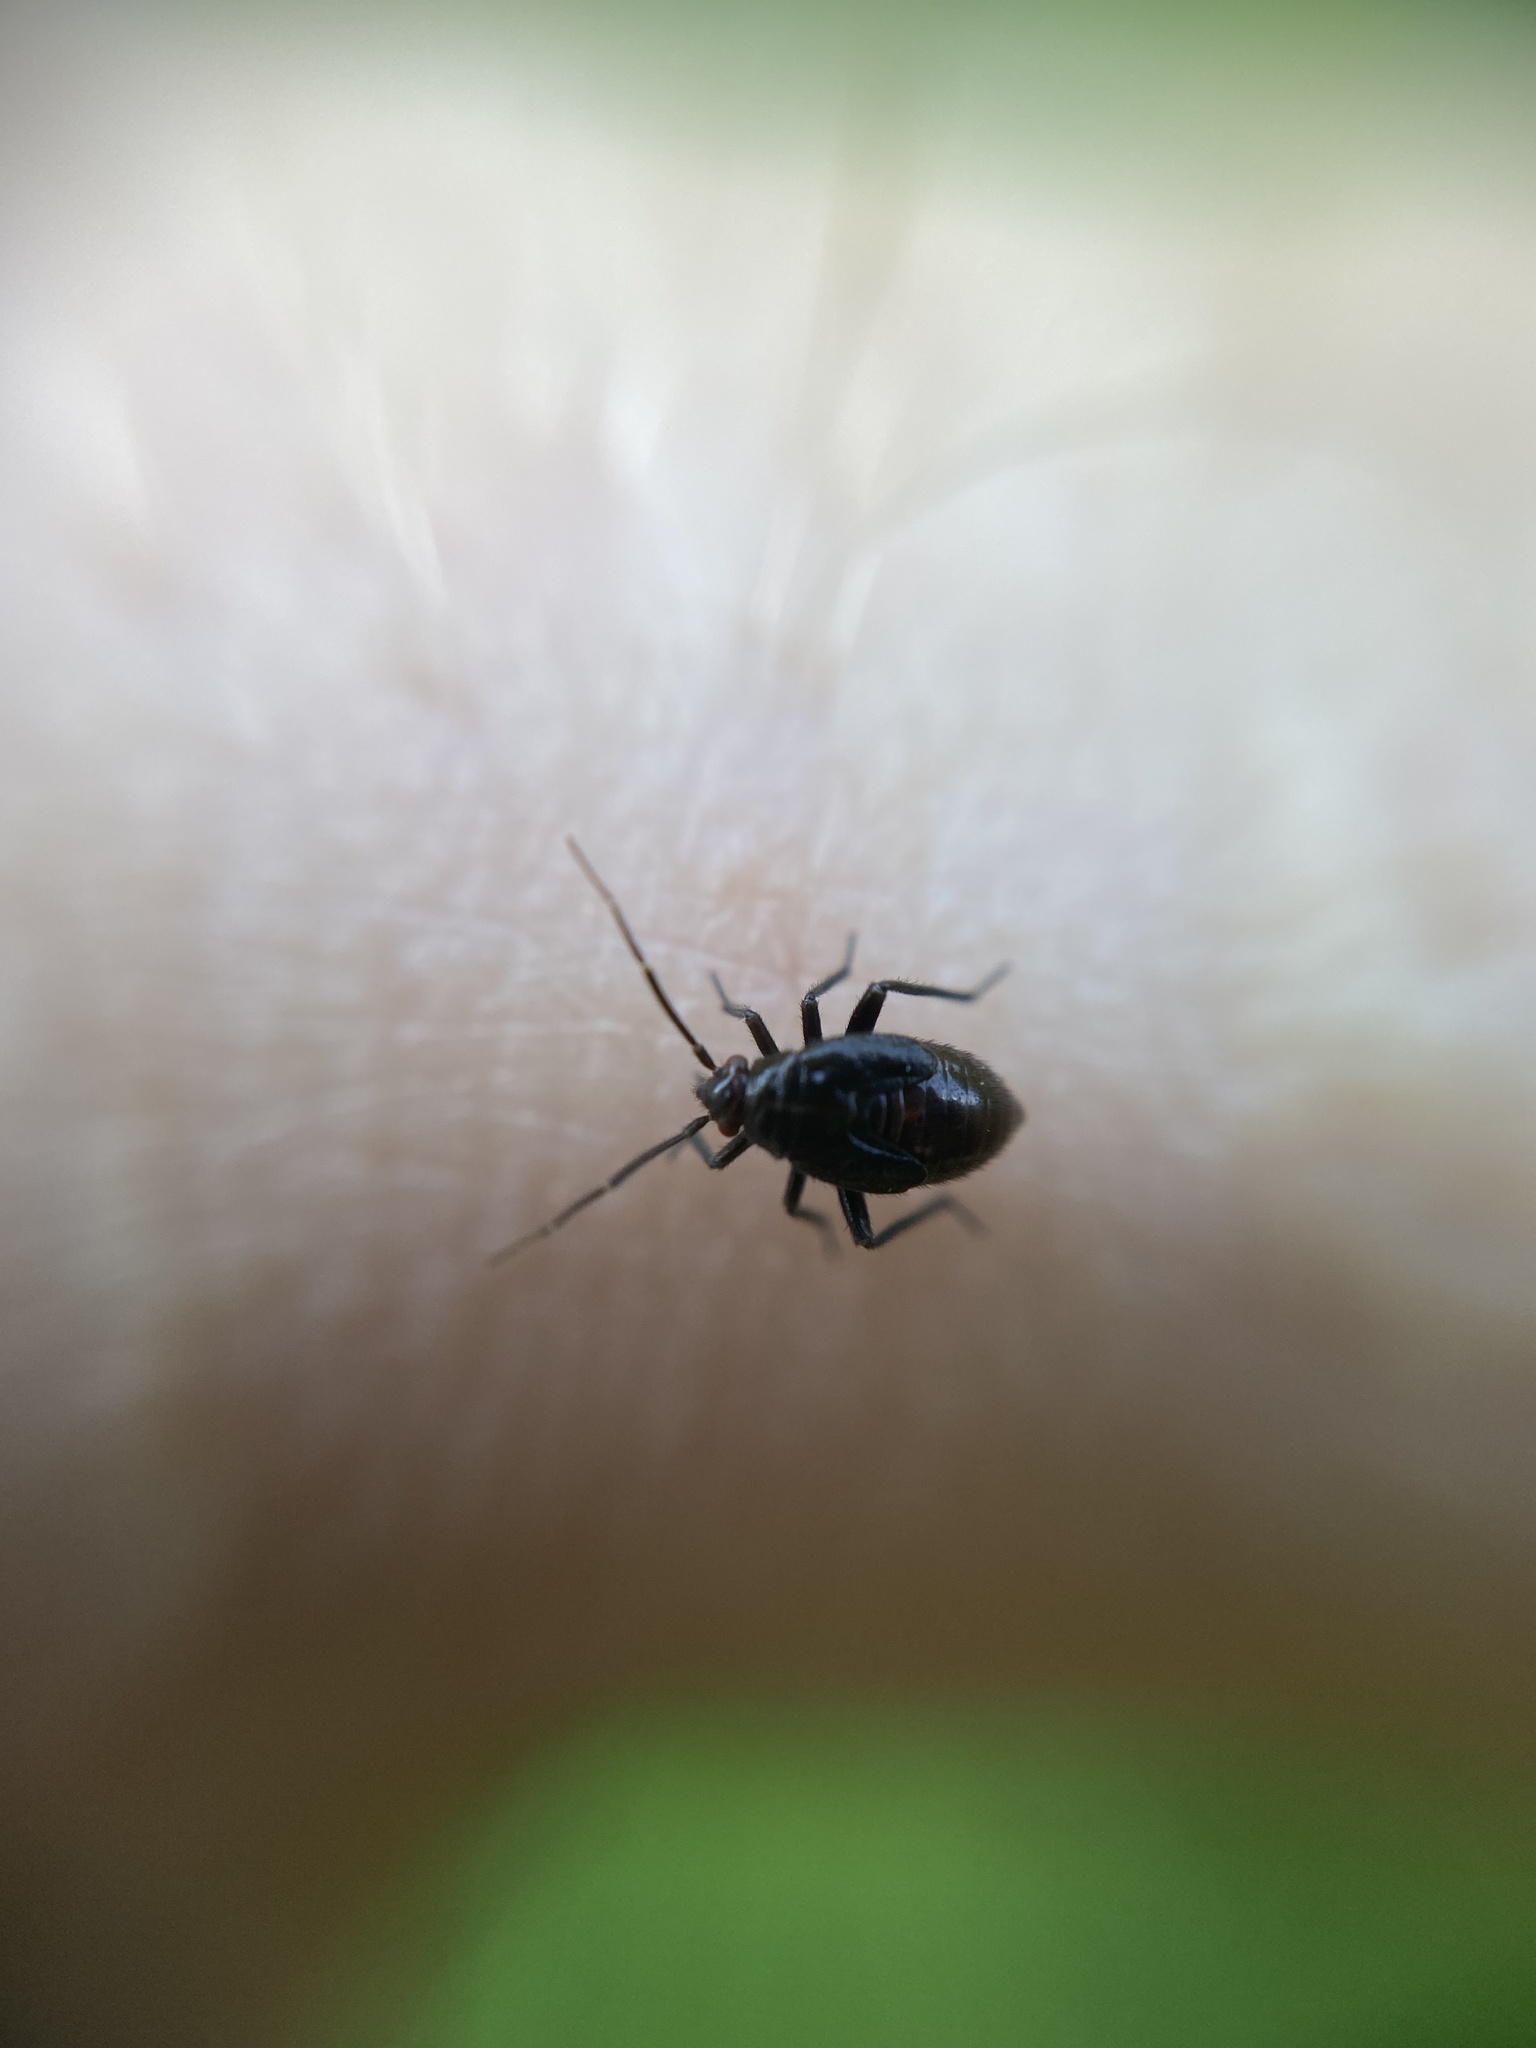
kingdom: Animalia
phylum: Arthropoda
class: Insecta
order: Hemiptera
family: Miridae
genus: Polymerus
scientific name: Polymerus nigritus
